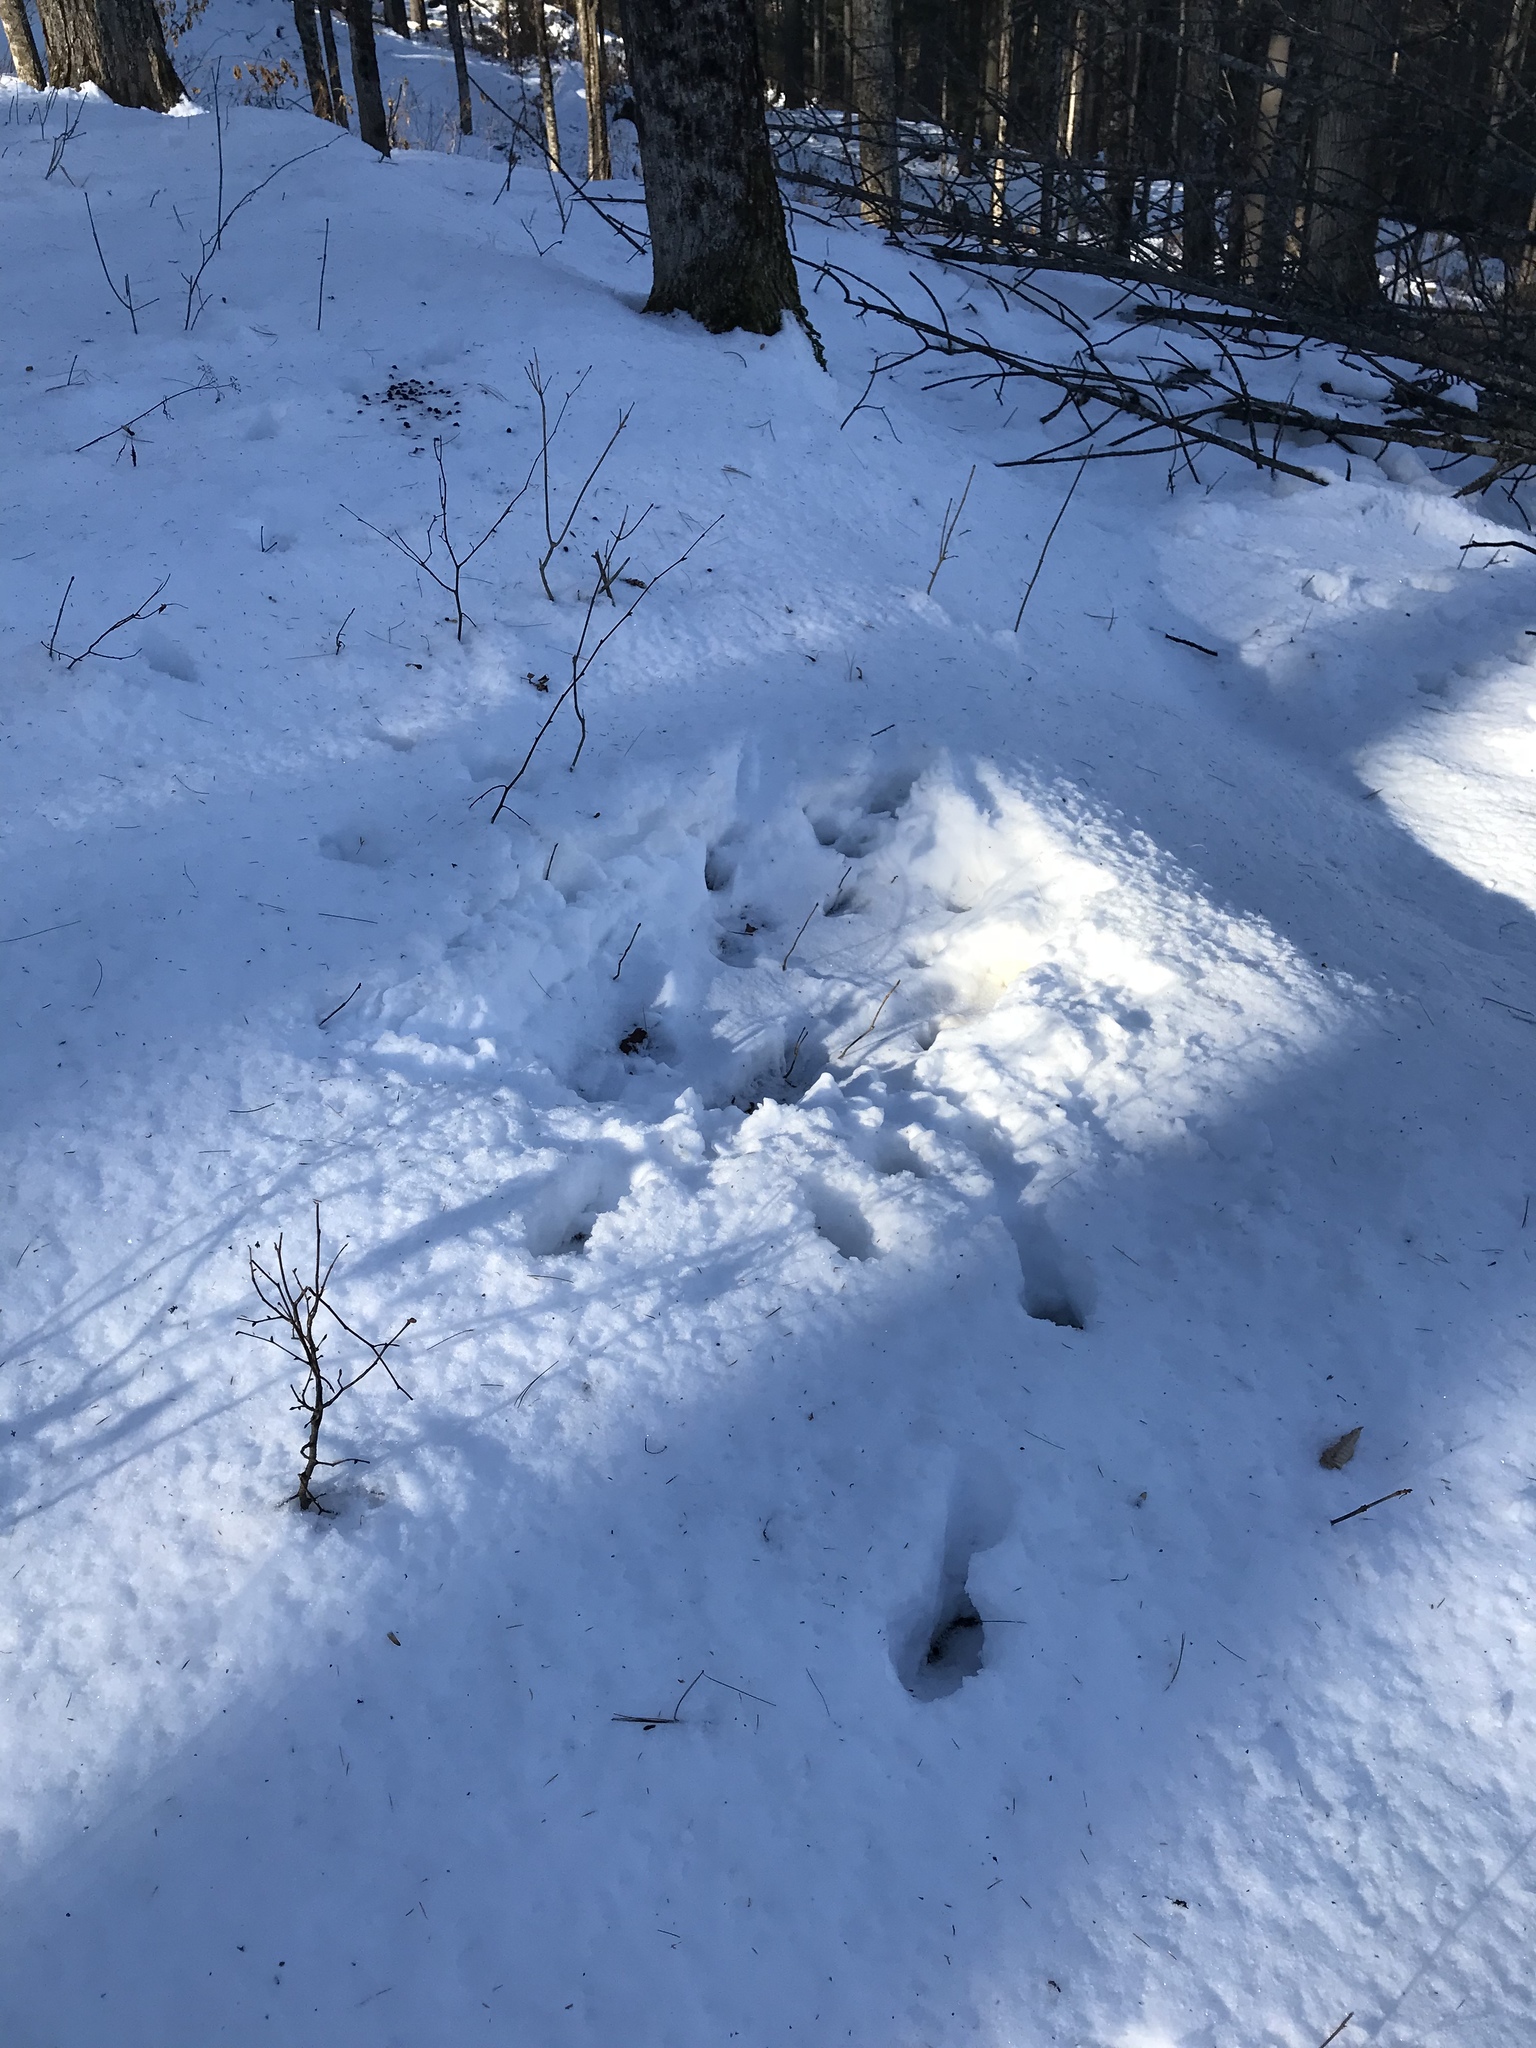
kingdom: Animalia
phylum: Chordata
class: Mammalia
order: Artiodactyla
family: Cervidae
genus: Odocoileus
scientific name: Odocoileus virginianus
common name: White-tailed deer
